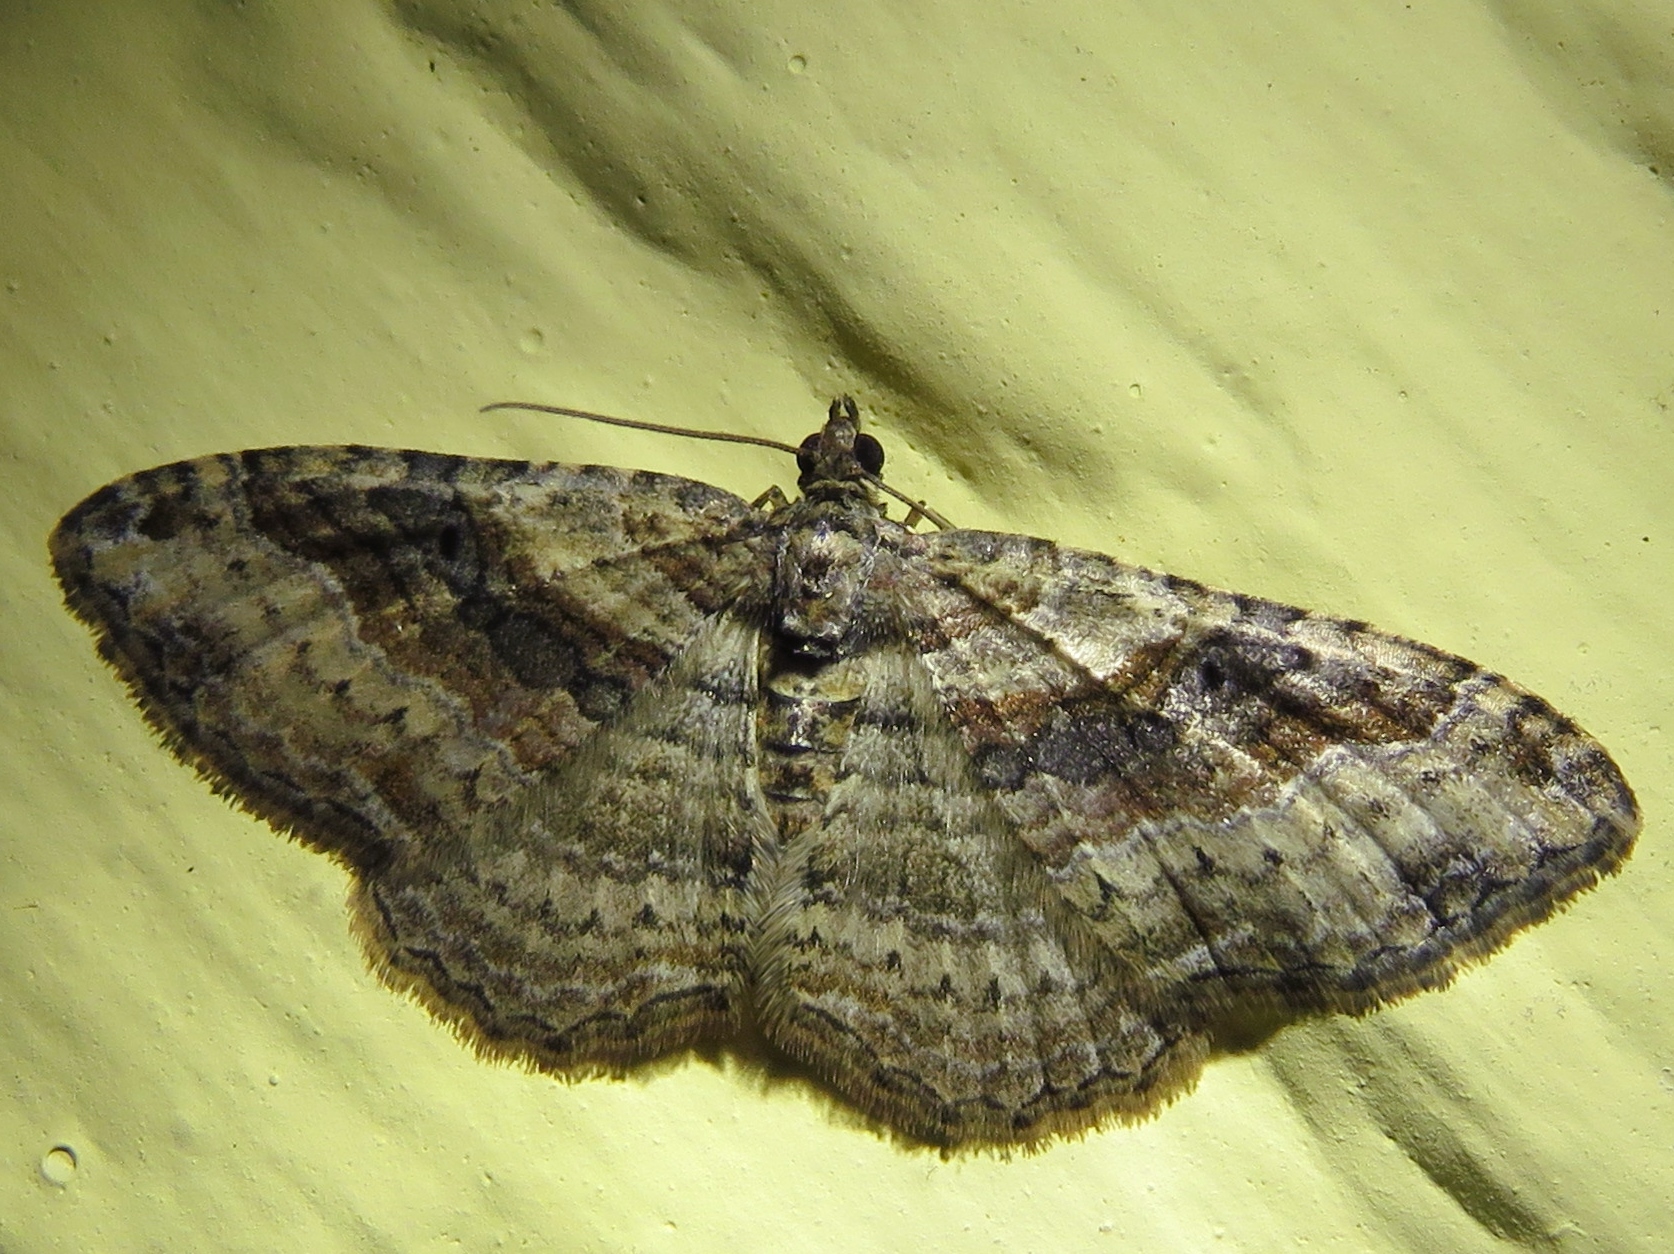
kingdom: Animalia
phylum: Arthropoda
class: Insecta
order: Lepidoptera
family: Geometridae
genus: Costaconvexa
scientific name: Costaconvexa centrostrigaria
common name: Bent-line carpet
